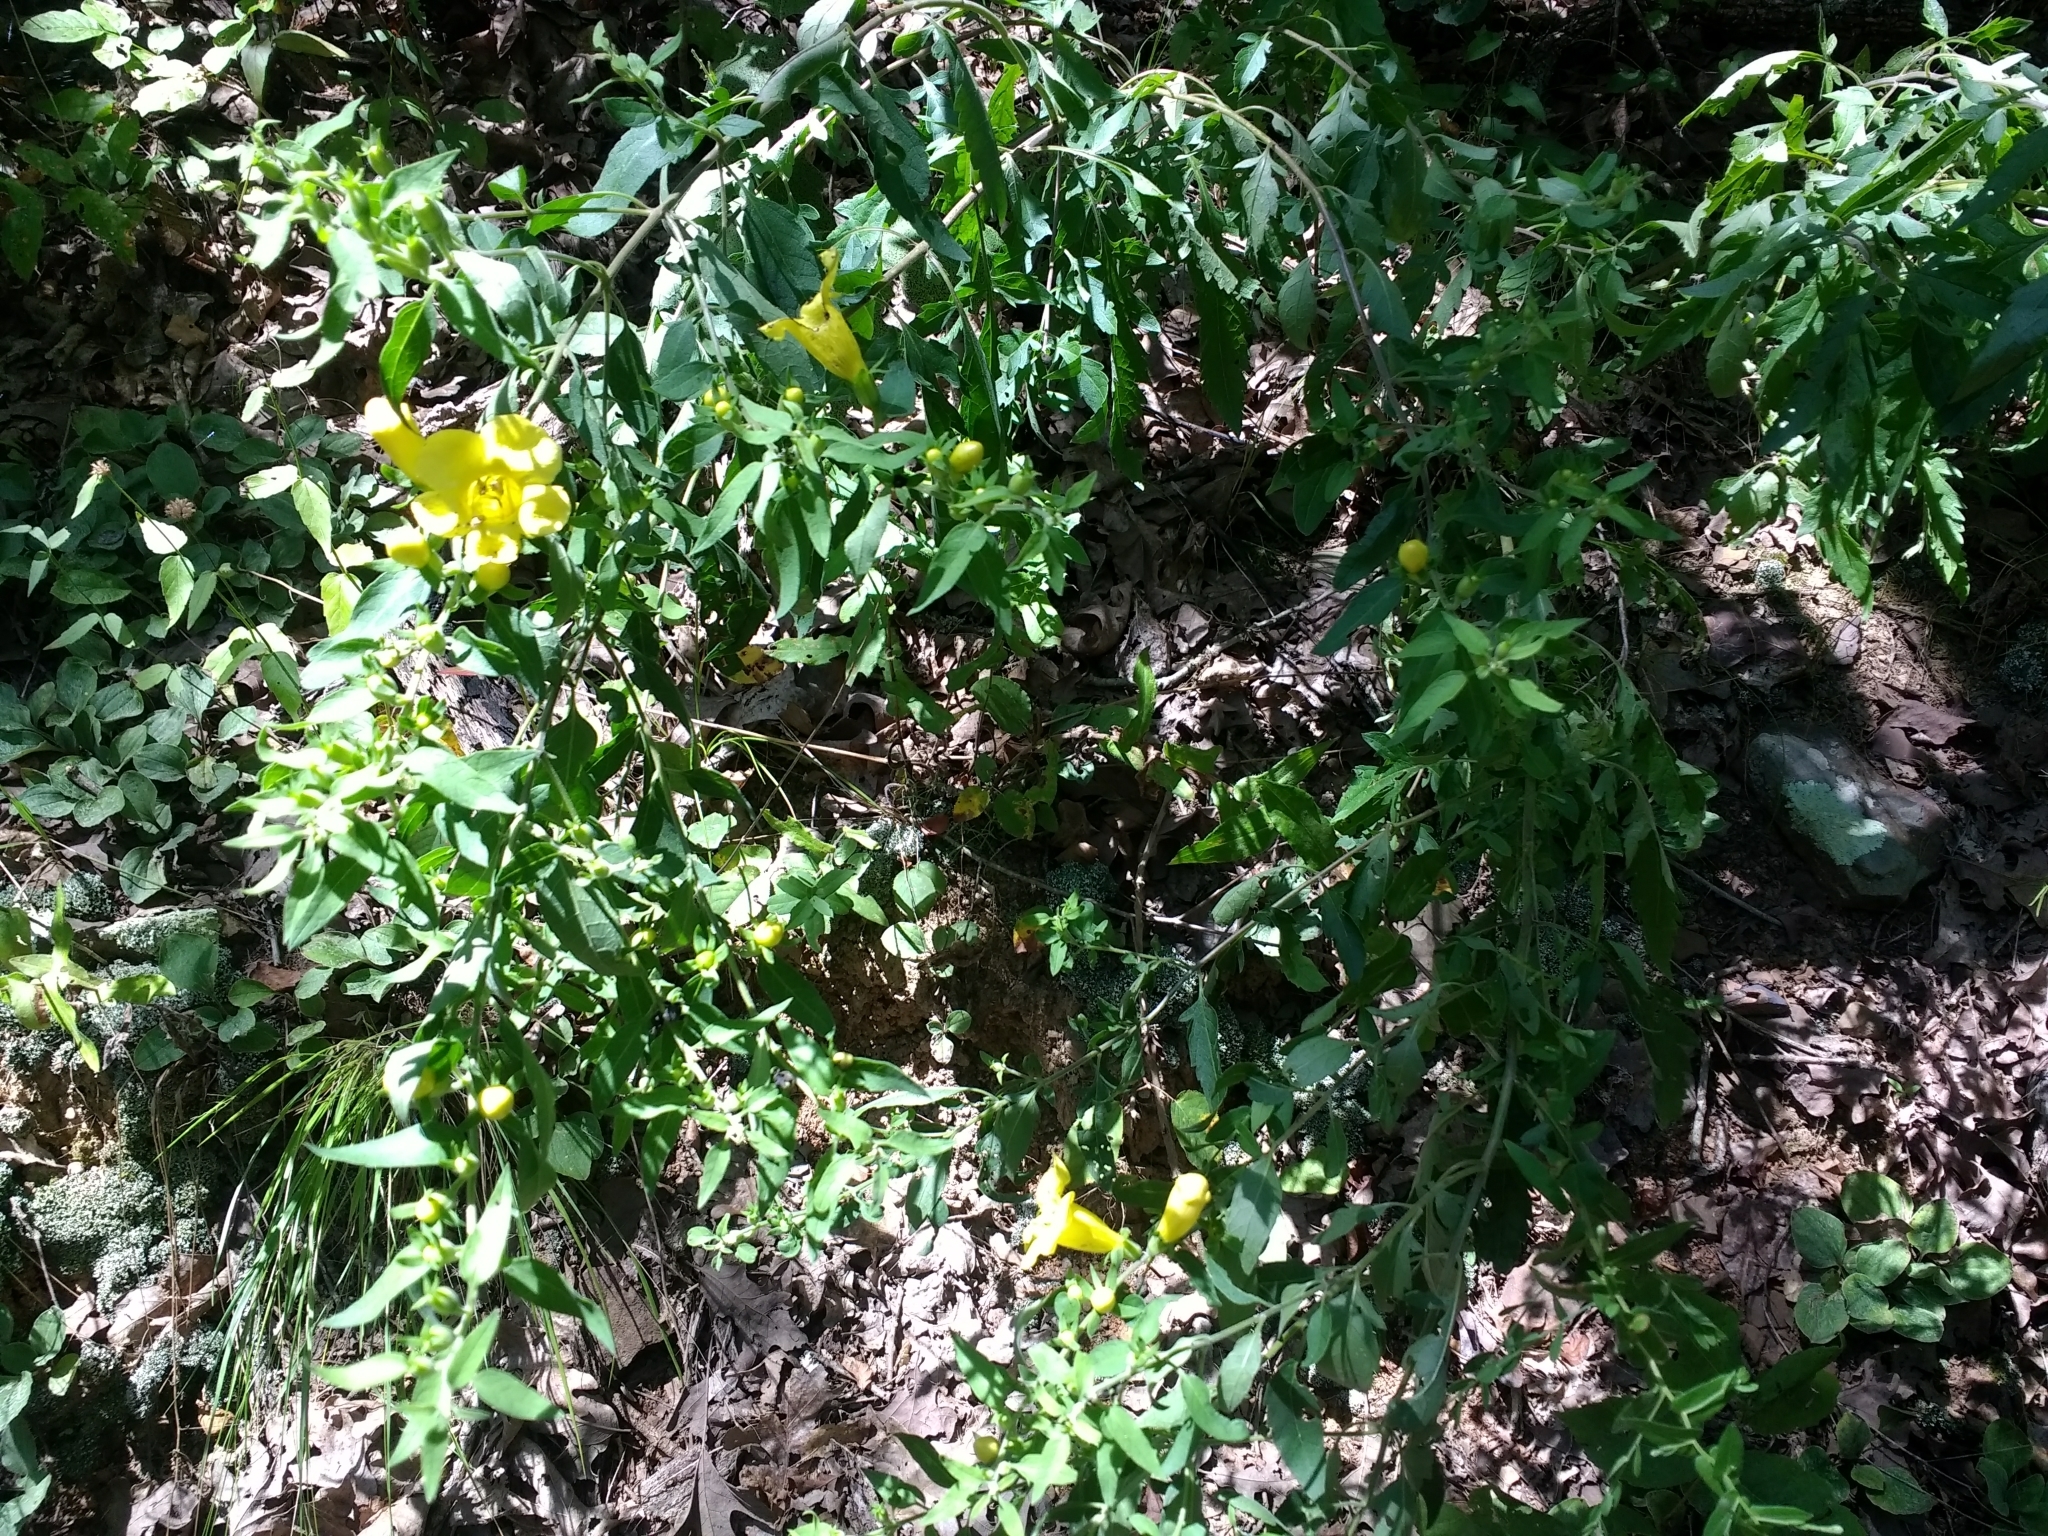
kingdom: Plantae
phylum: Tracheophyta
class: Magnoliopsida
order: Lamiales
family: Orobanchaceae
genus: Aureolaria
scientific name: Aureolaria grandiflora
